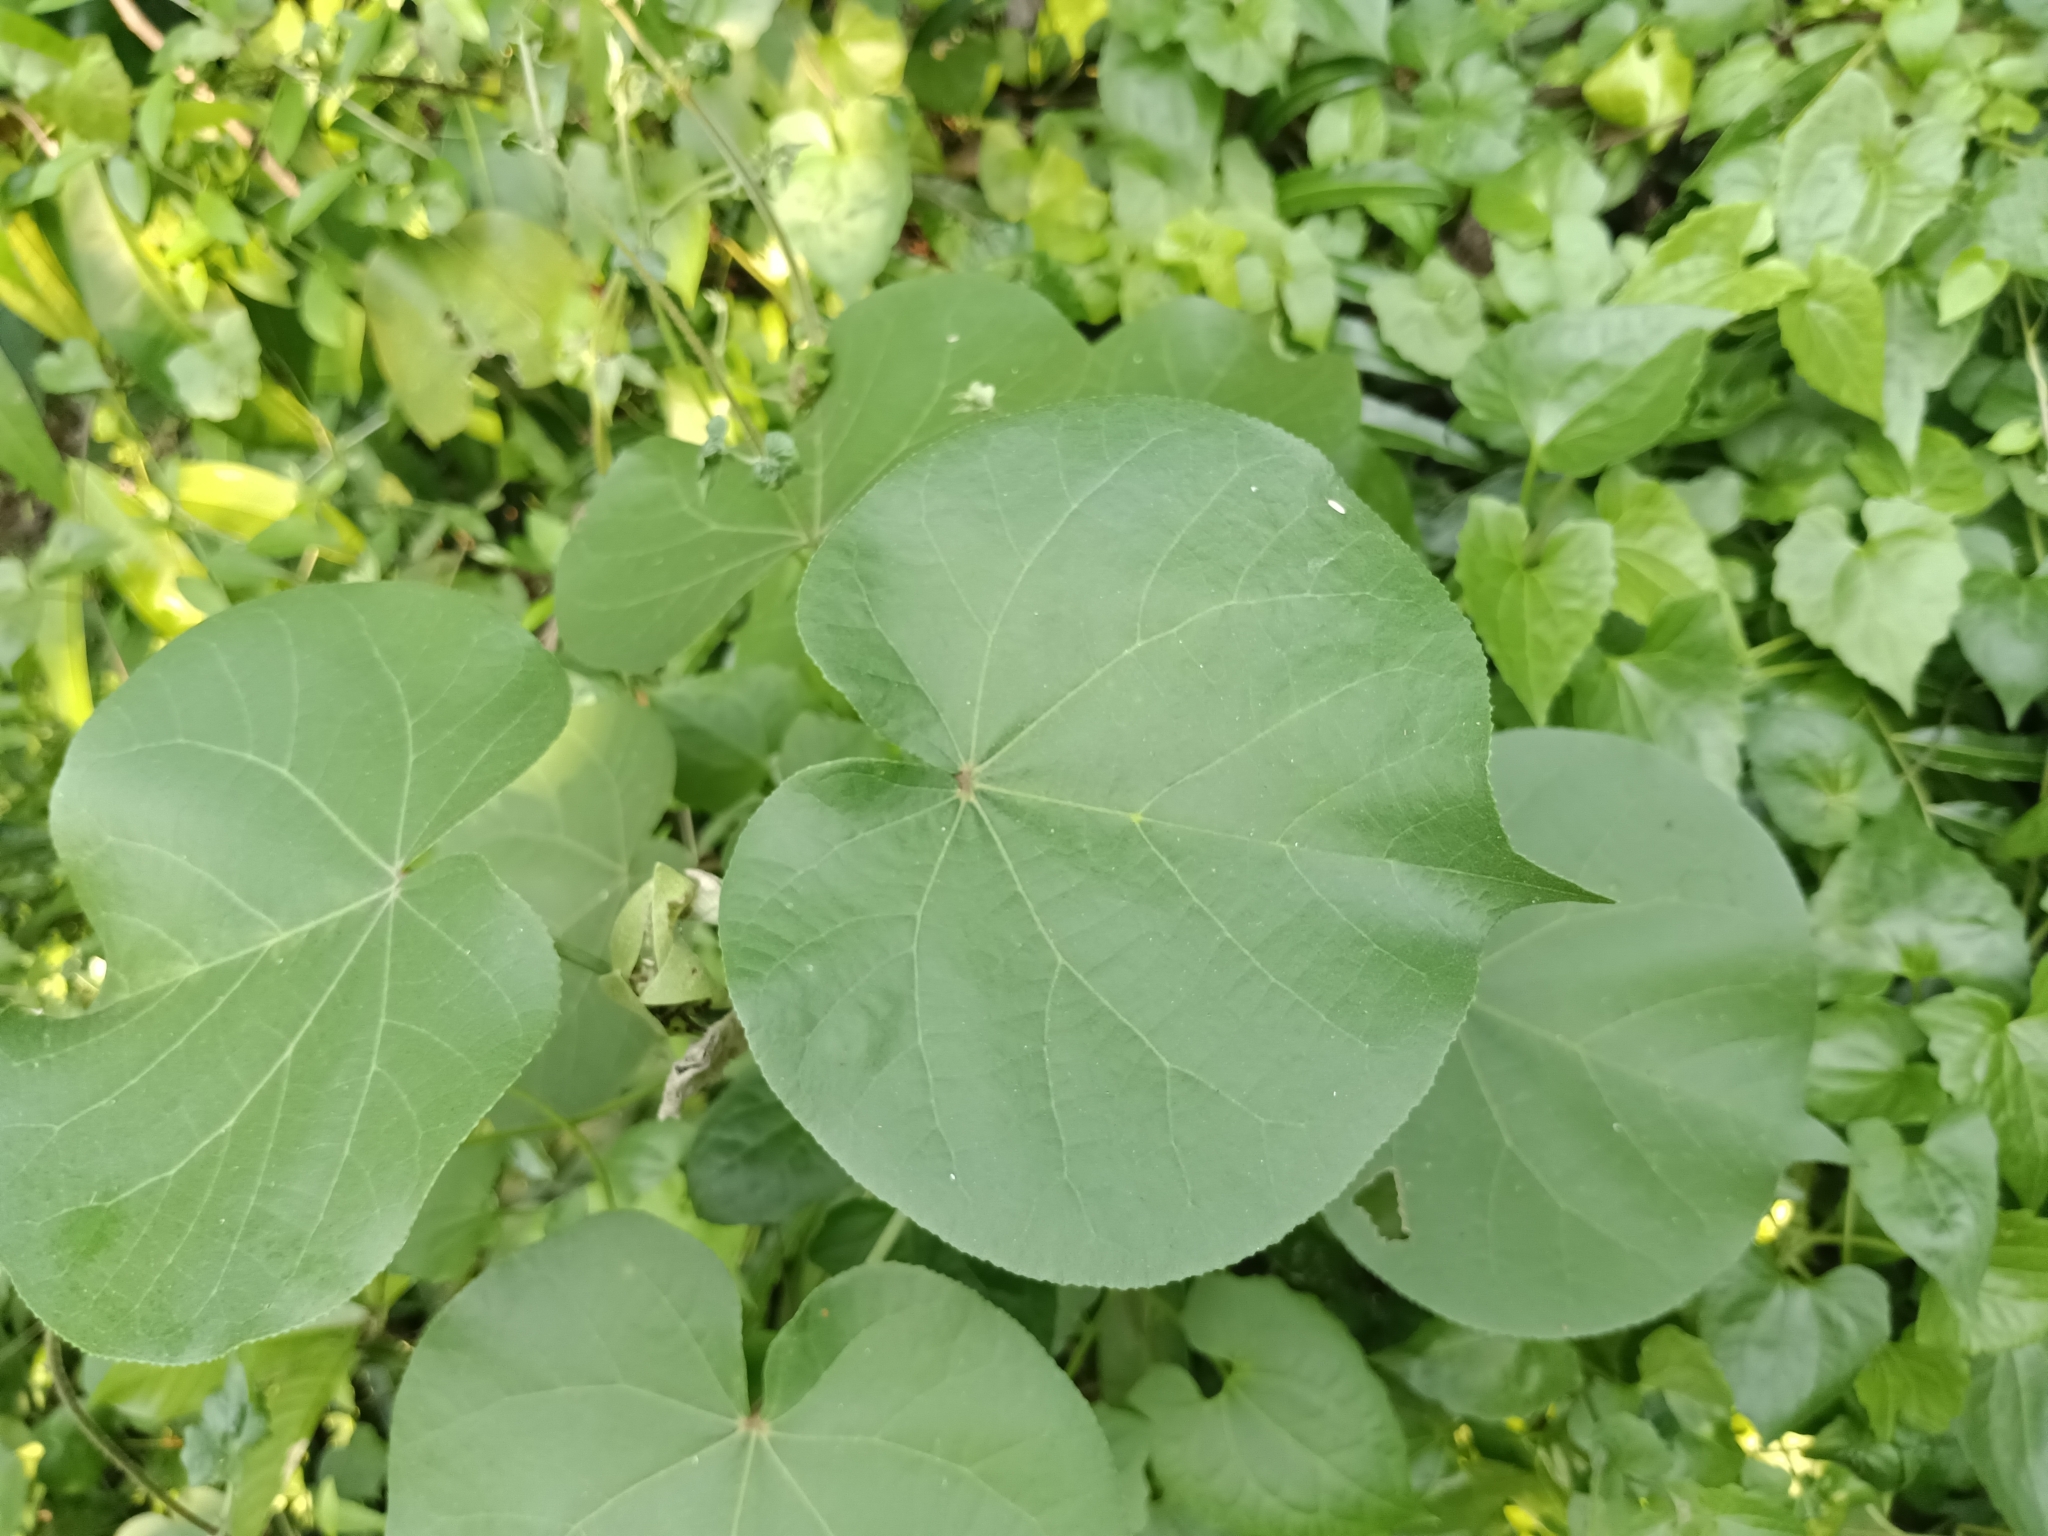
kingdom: Plantae
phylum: Tracheophyta
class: Magnoliopsida
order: Malvales
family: Malvaceae
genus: Talipariti
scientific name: Talipariti tiliaceum
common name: Sea hibiscus
